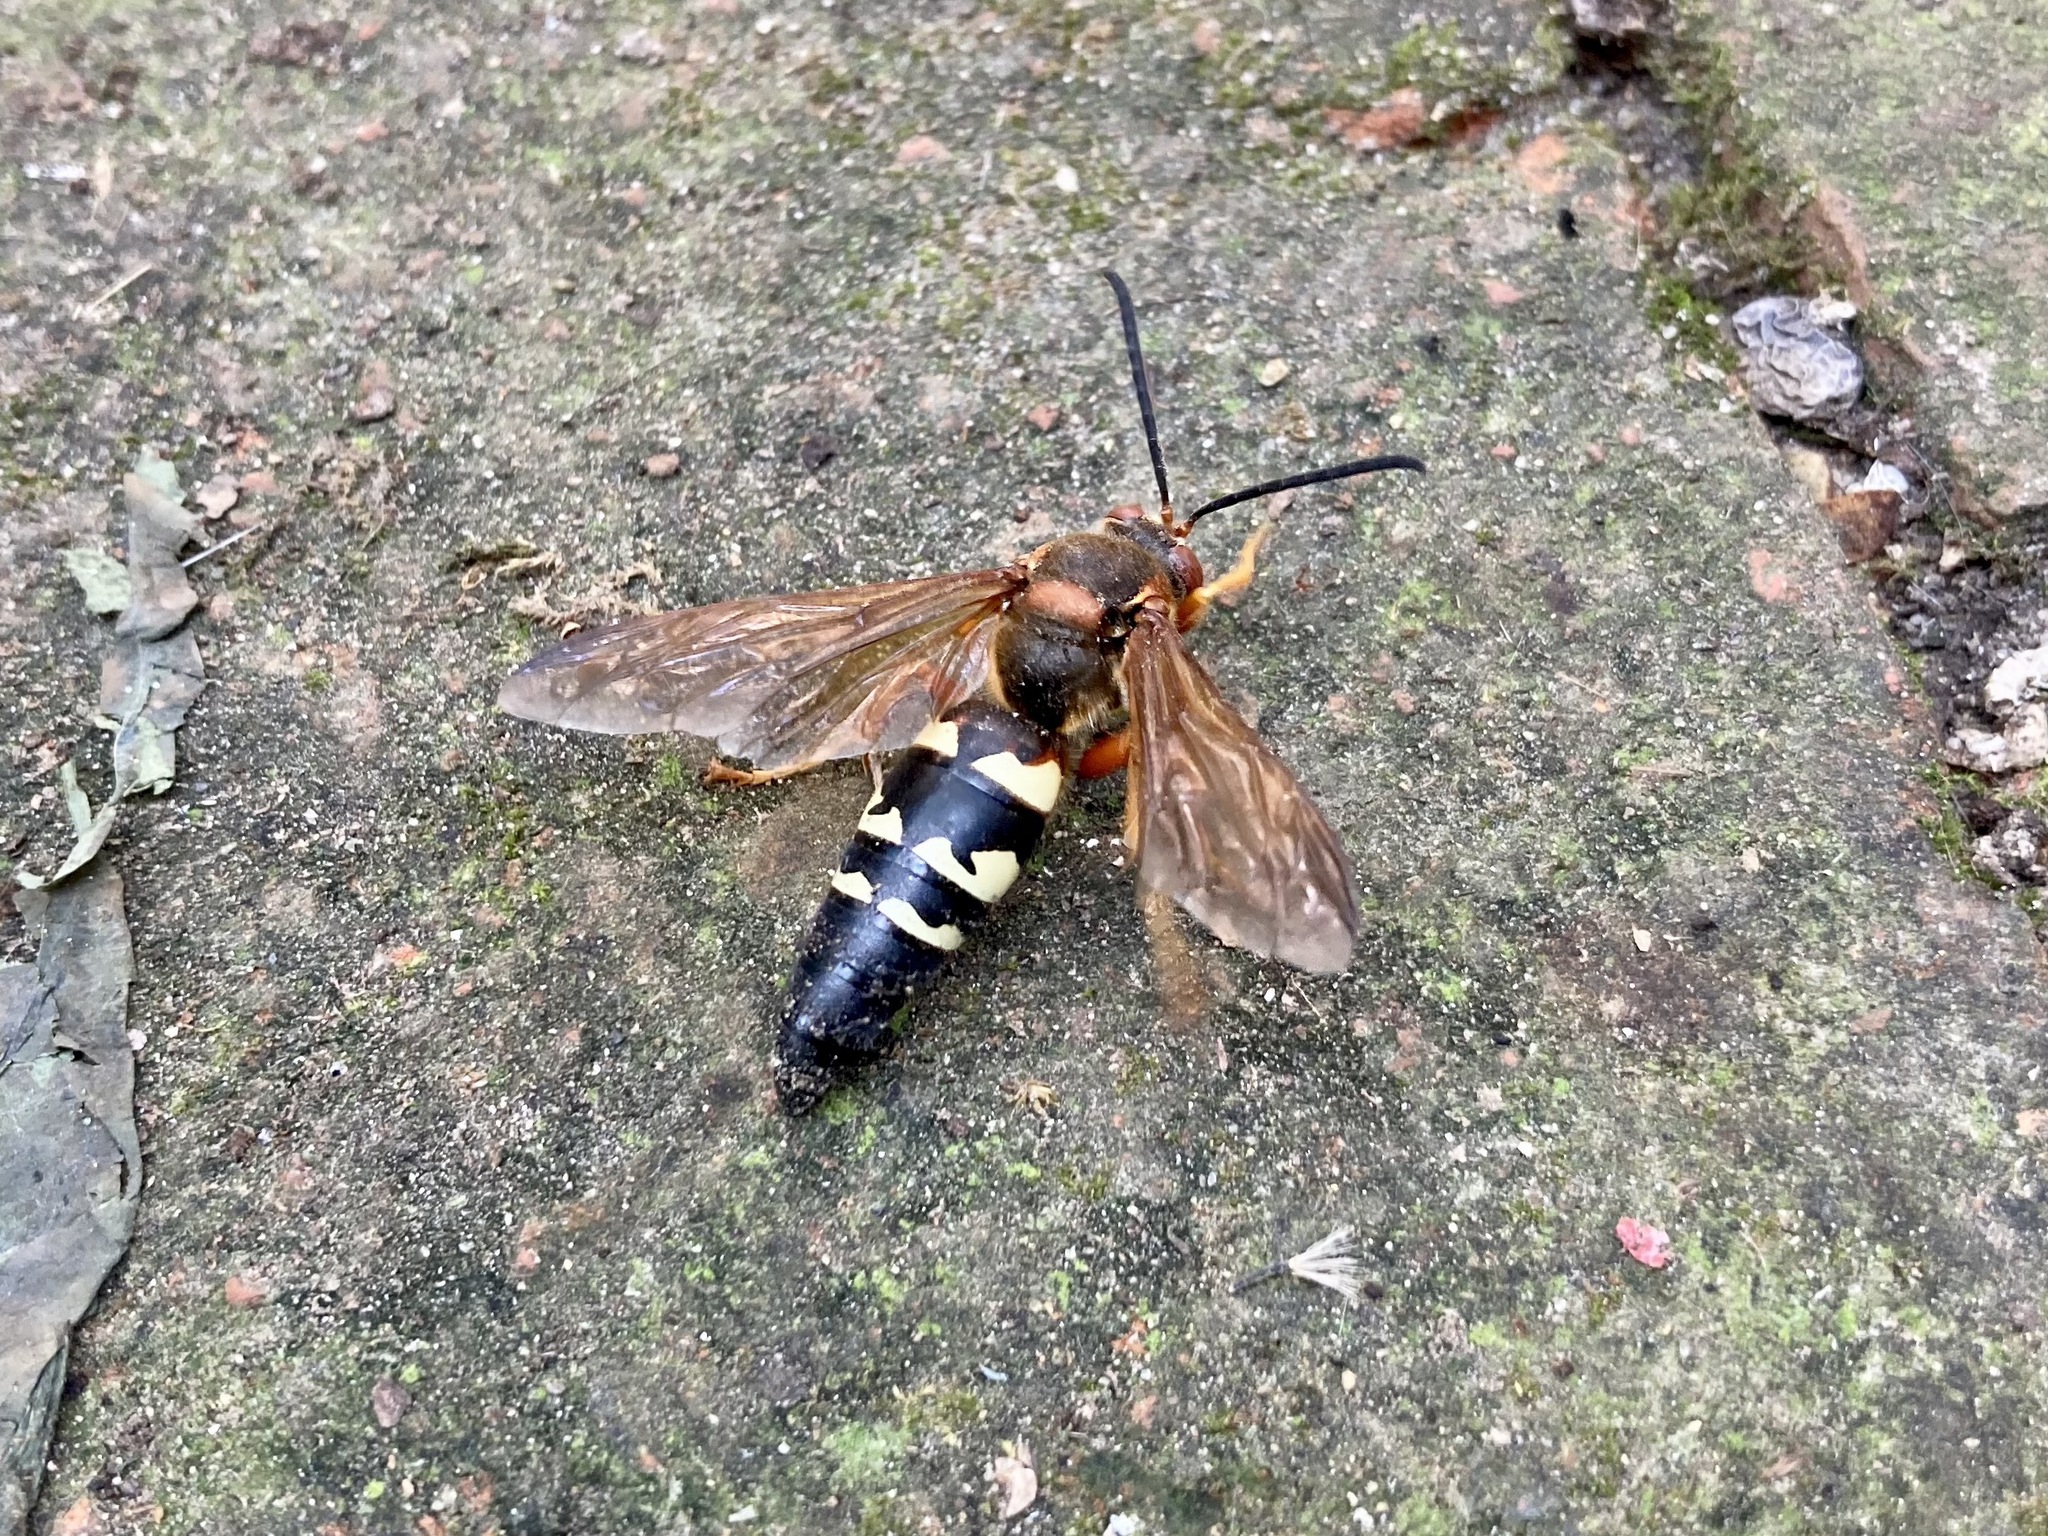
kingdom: Animalia
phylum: Arthropoda
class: Insecta
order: Hymenoptera
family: Crabronidae
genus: Sphecius
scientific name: Sphecius speciosus
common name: Cicada killer
